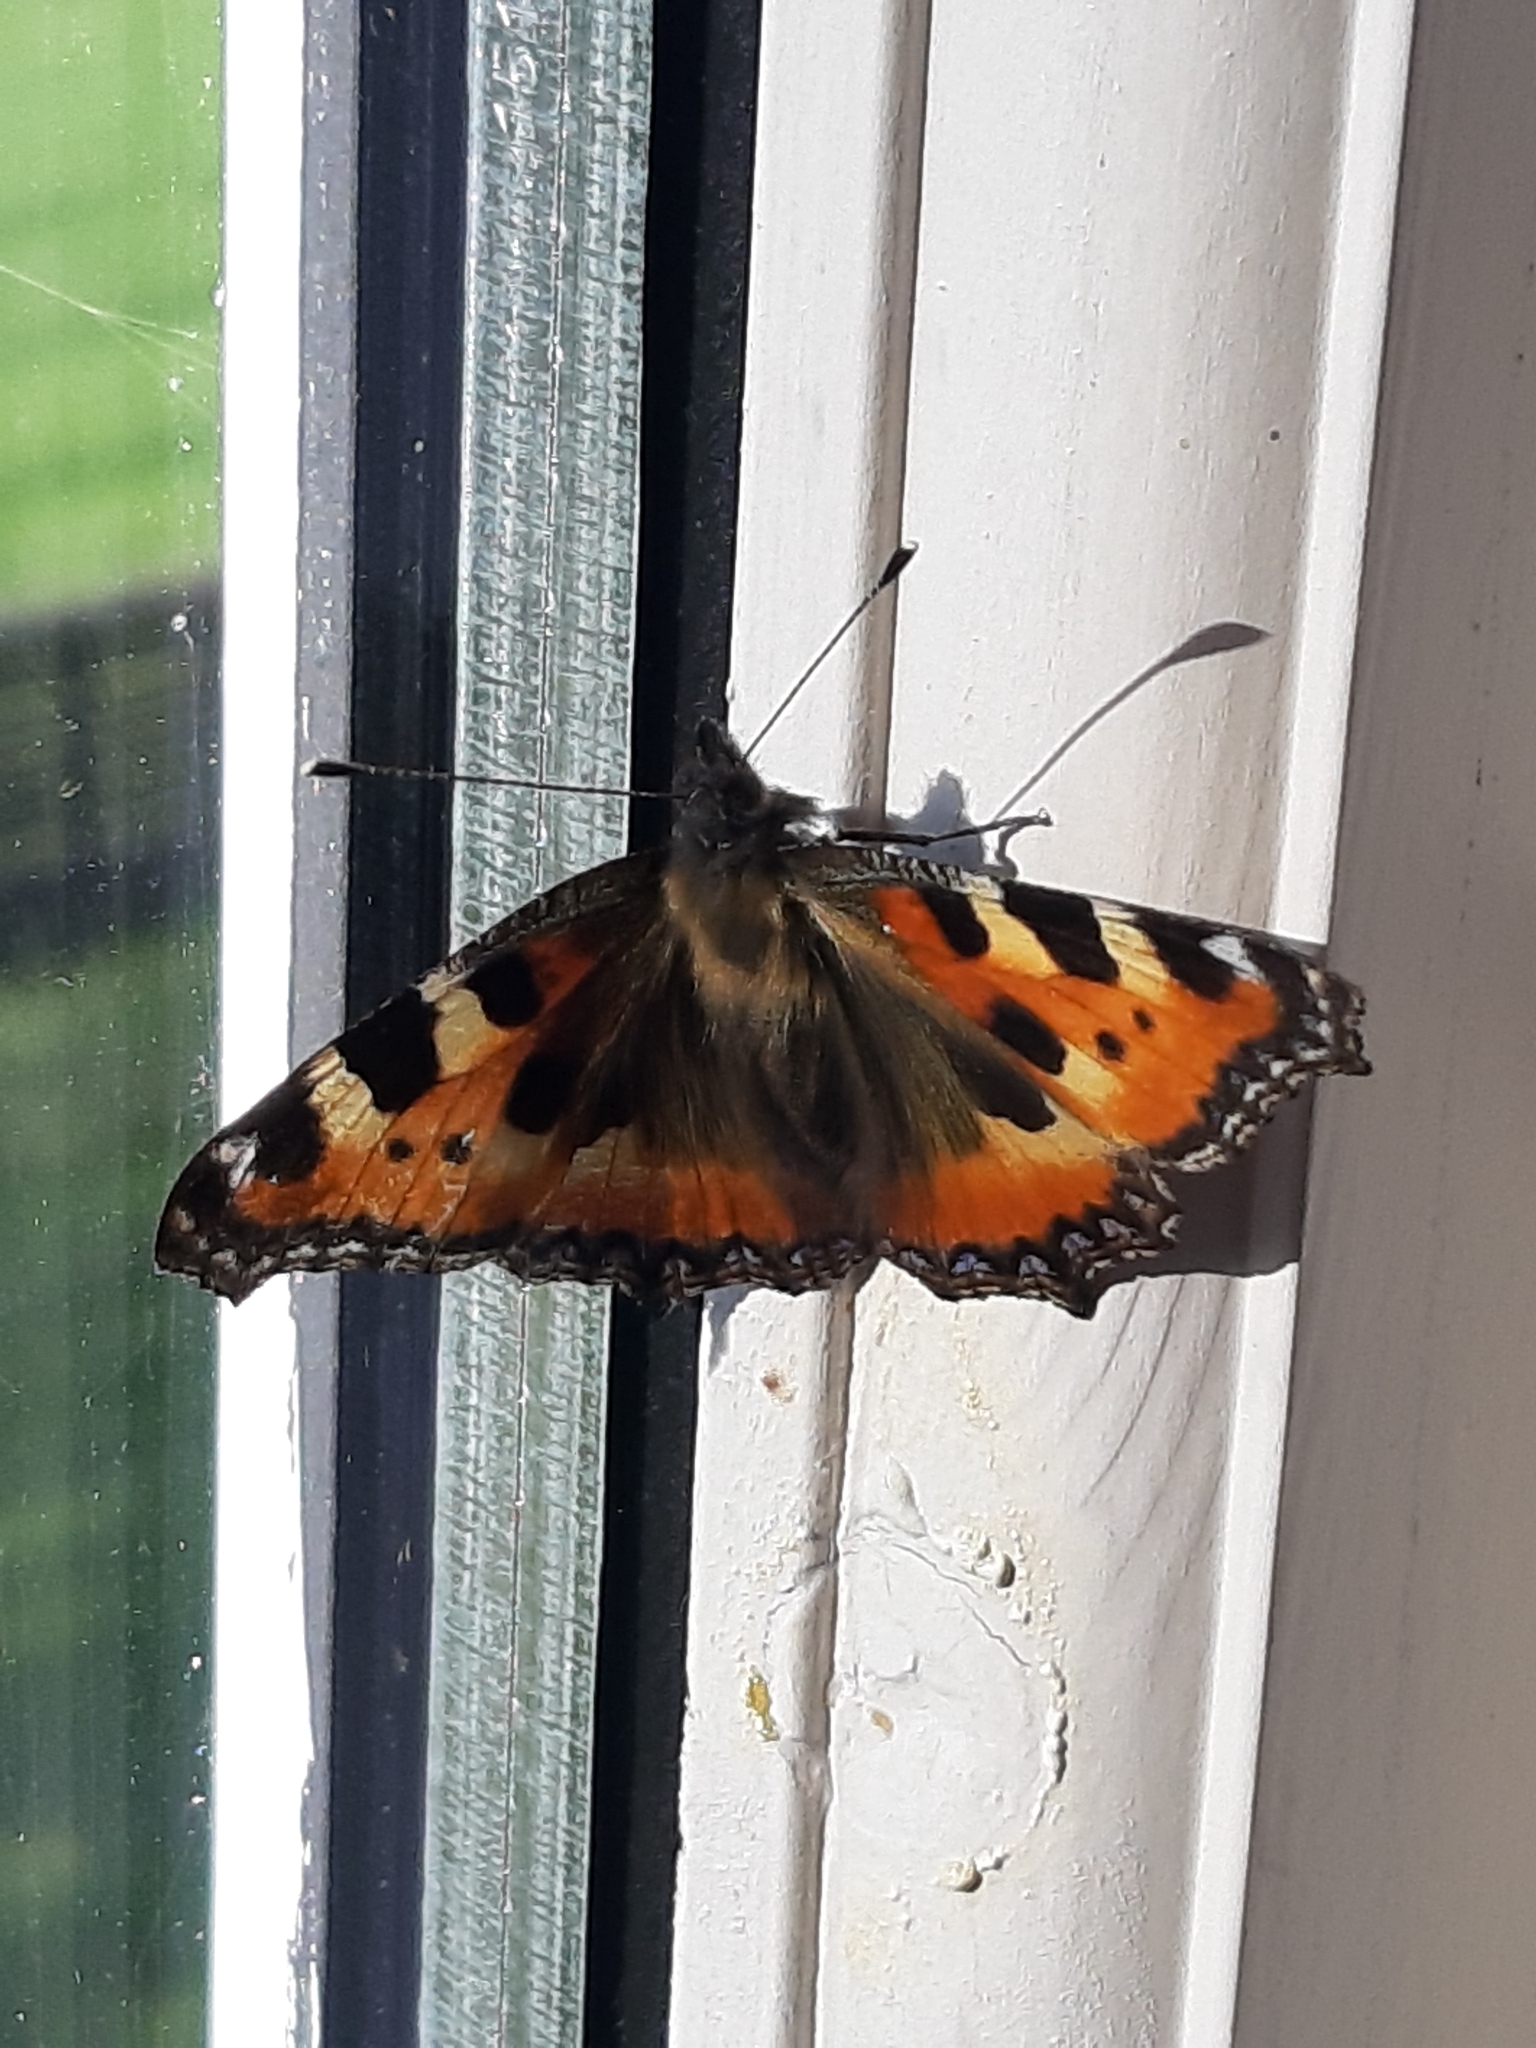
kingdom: Animalia
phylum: Arthropoda
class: Insecta
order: Lepidoptera
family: Nymphalidae
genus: Aglais
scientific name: Aglais urticae
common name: Small tortoiseshell
